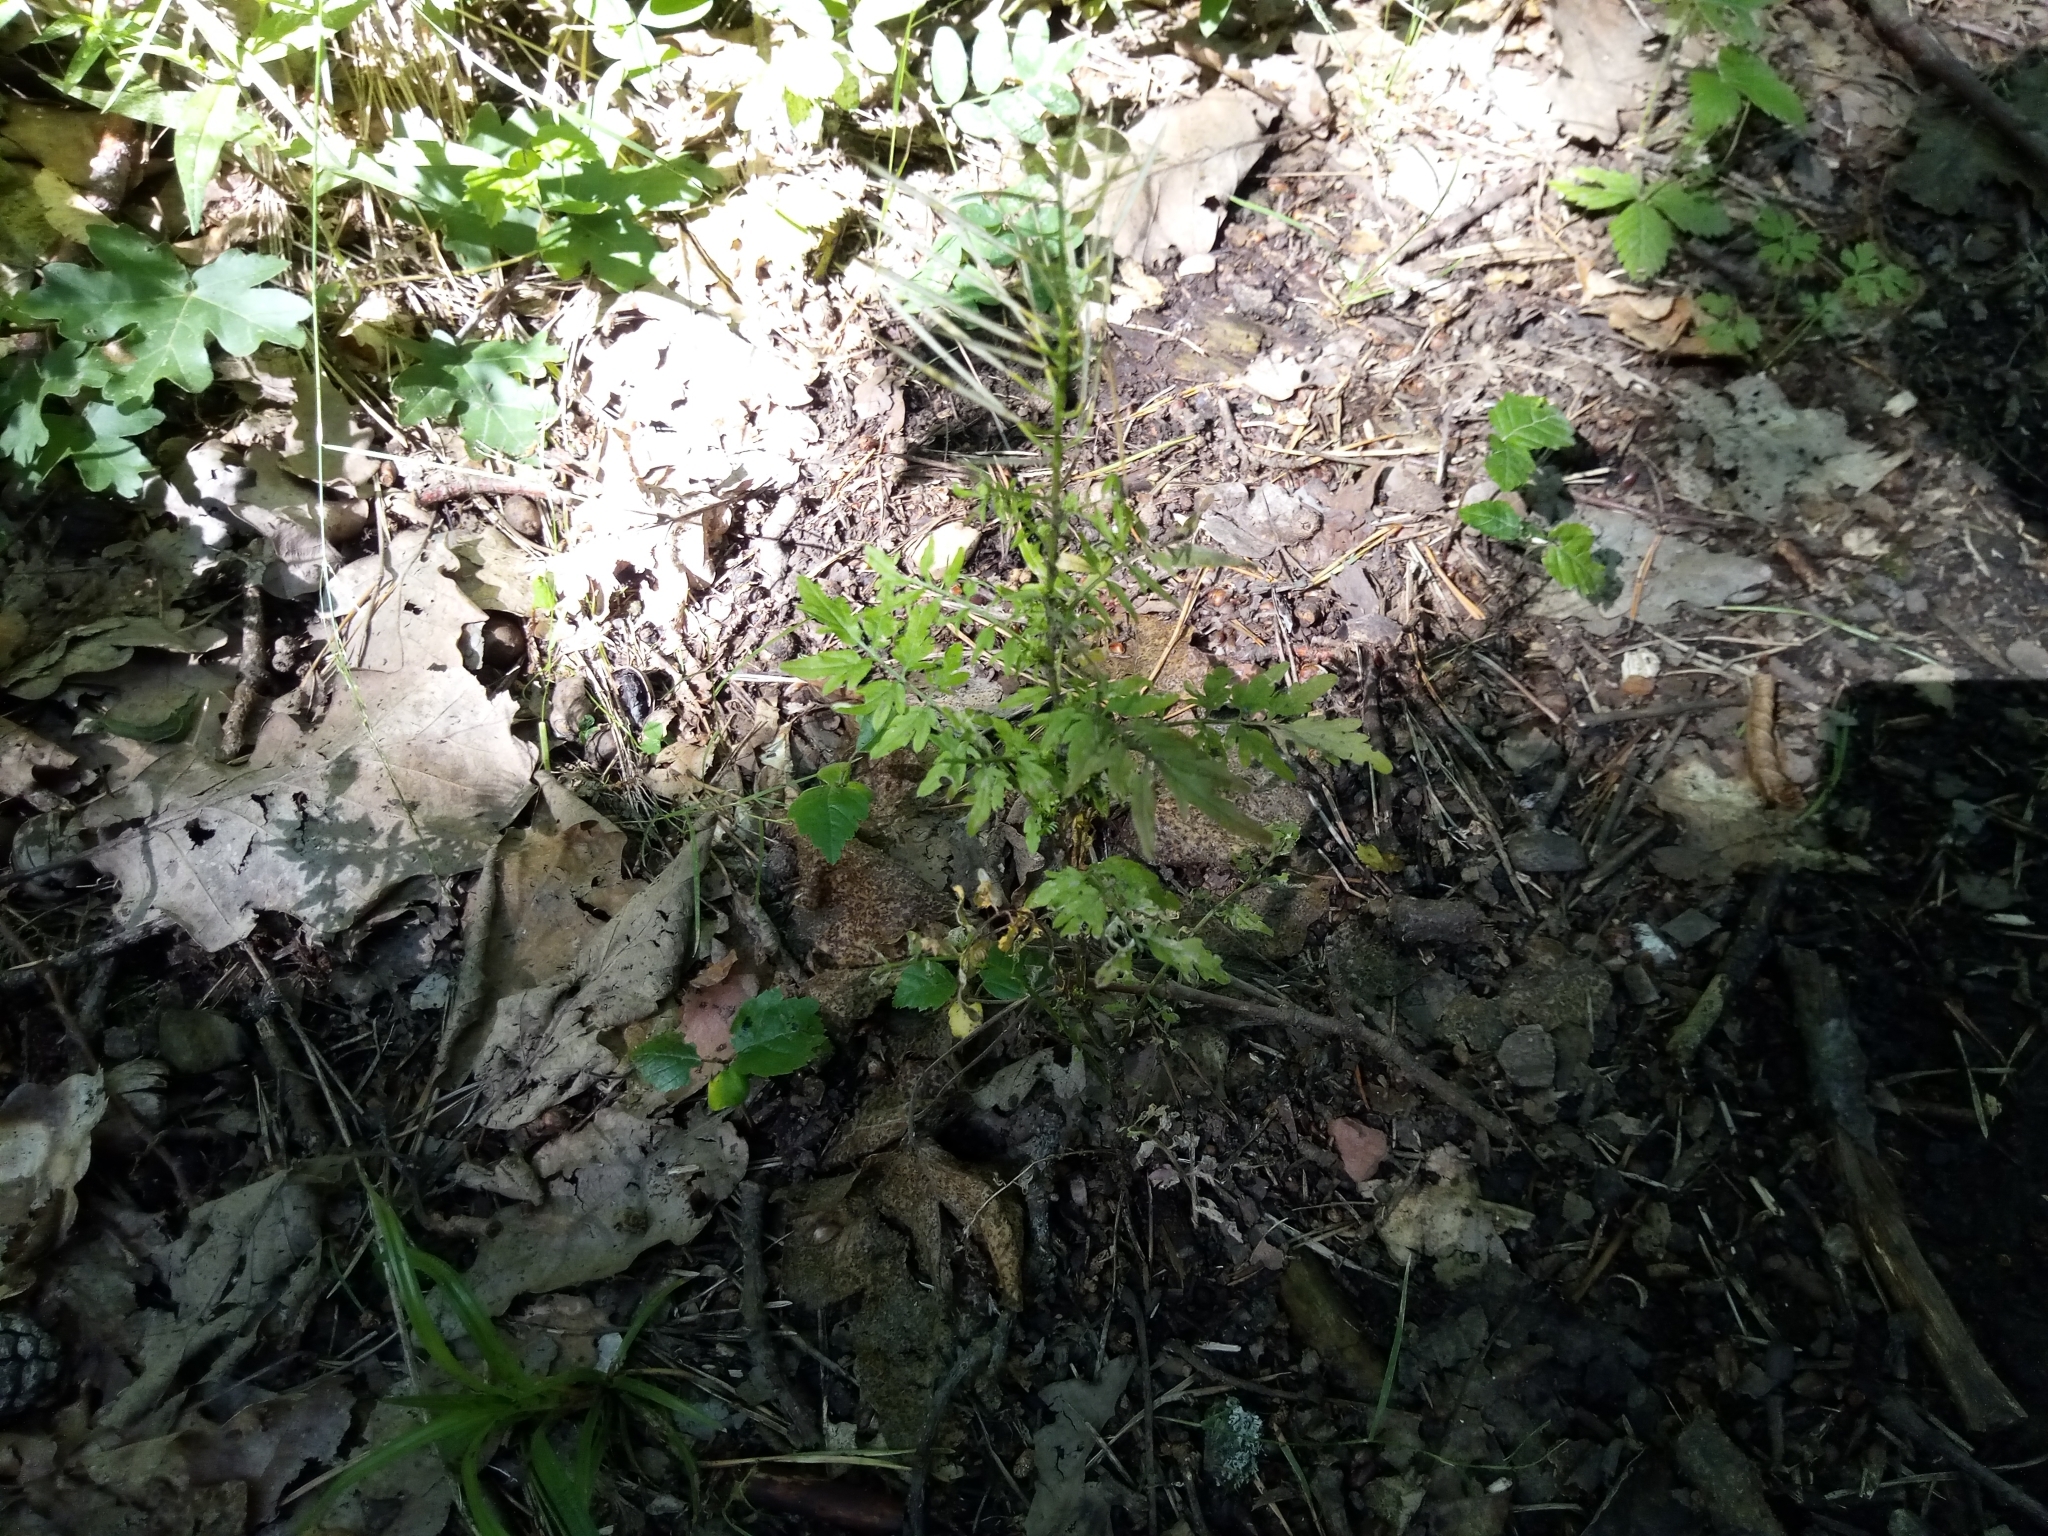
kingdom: Plantae
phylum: Tracheophyta
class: Magnoliopsida
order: Brassicales
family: Brassicaceae
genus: Cardamine
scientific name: Cardamine impatiens
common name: Narrow-leaved bitter-cress
